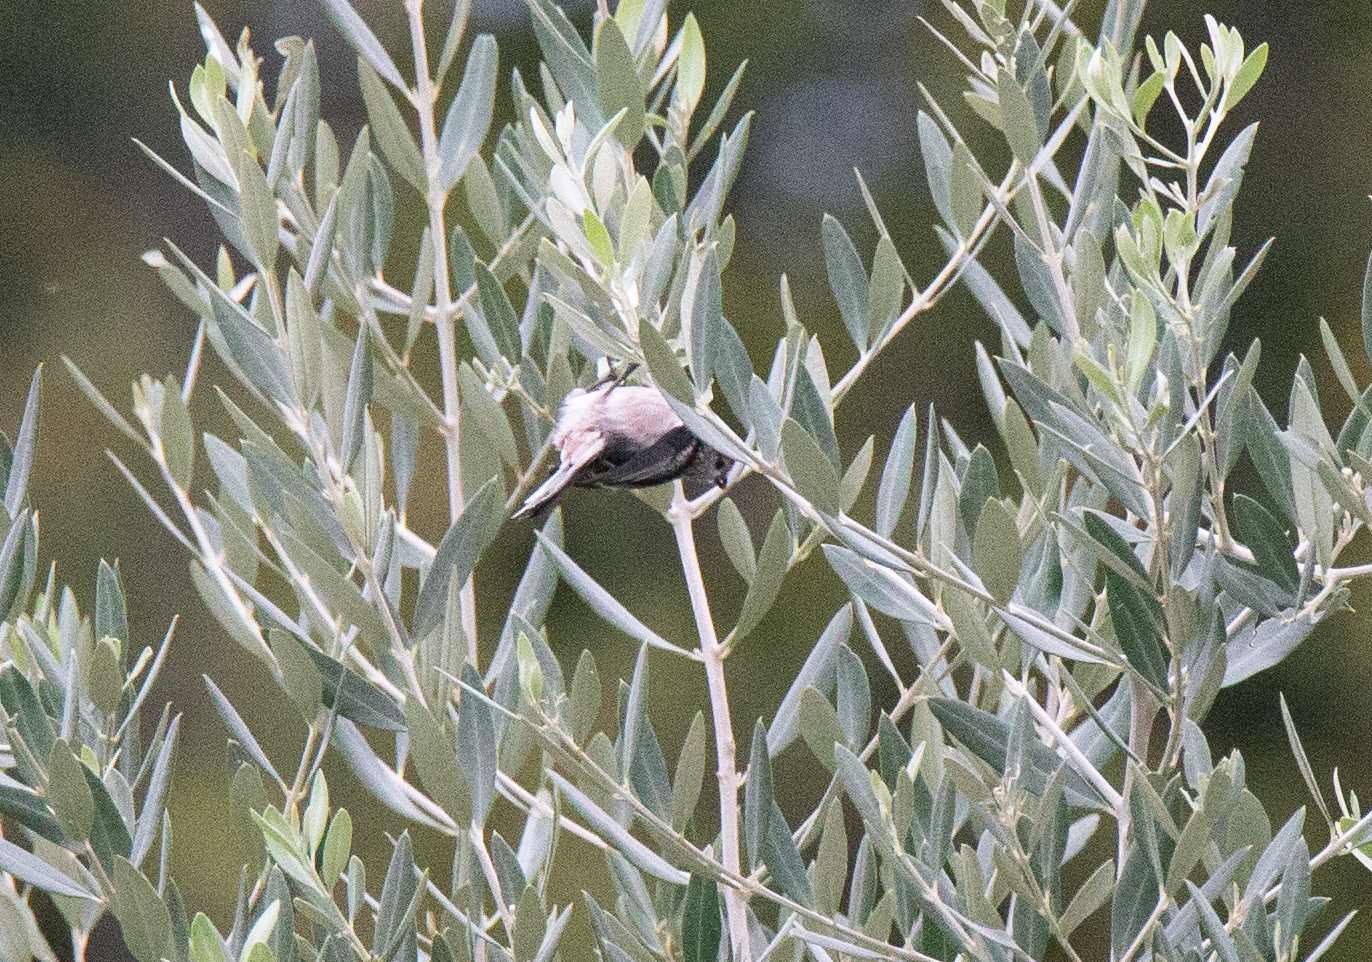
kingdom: Animalia
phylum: Chordata
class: Aves
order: Passeriformes
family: Aegithalidae
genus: Aegithalos
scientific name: Aegithalos caudatus
